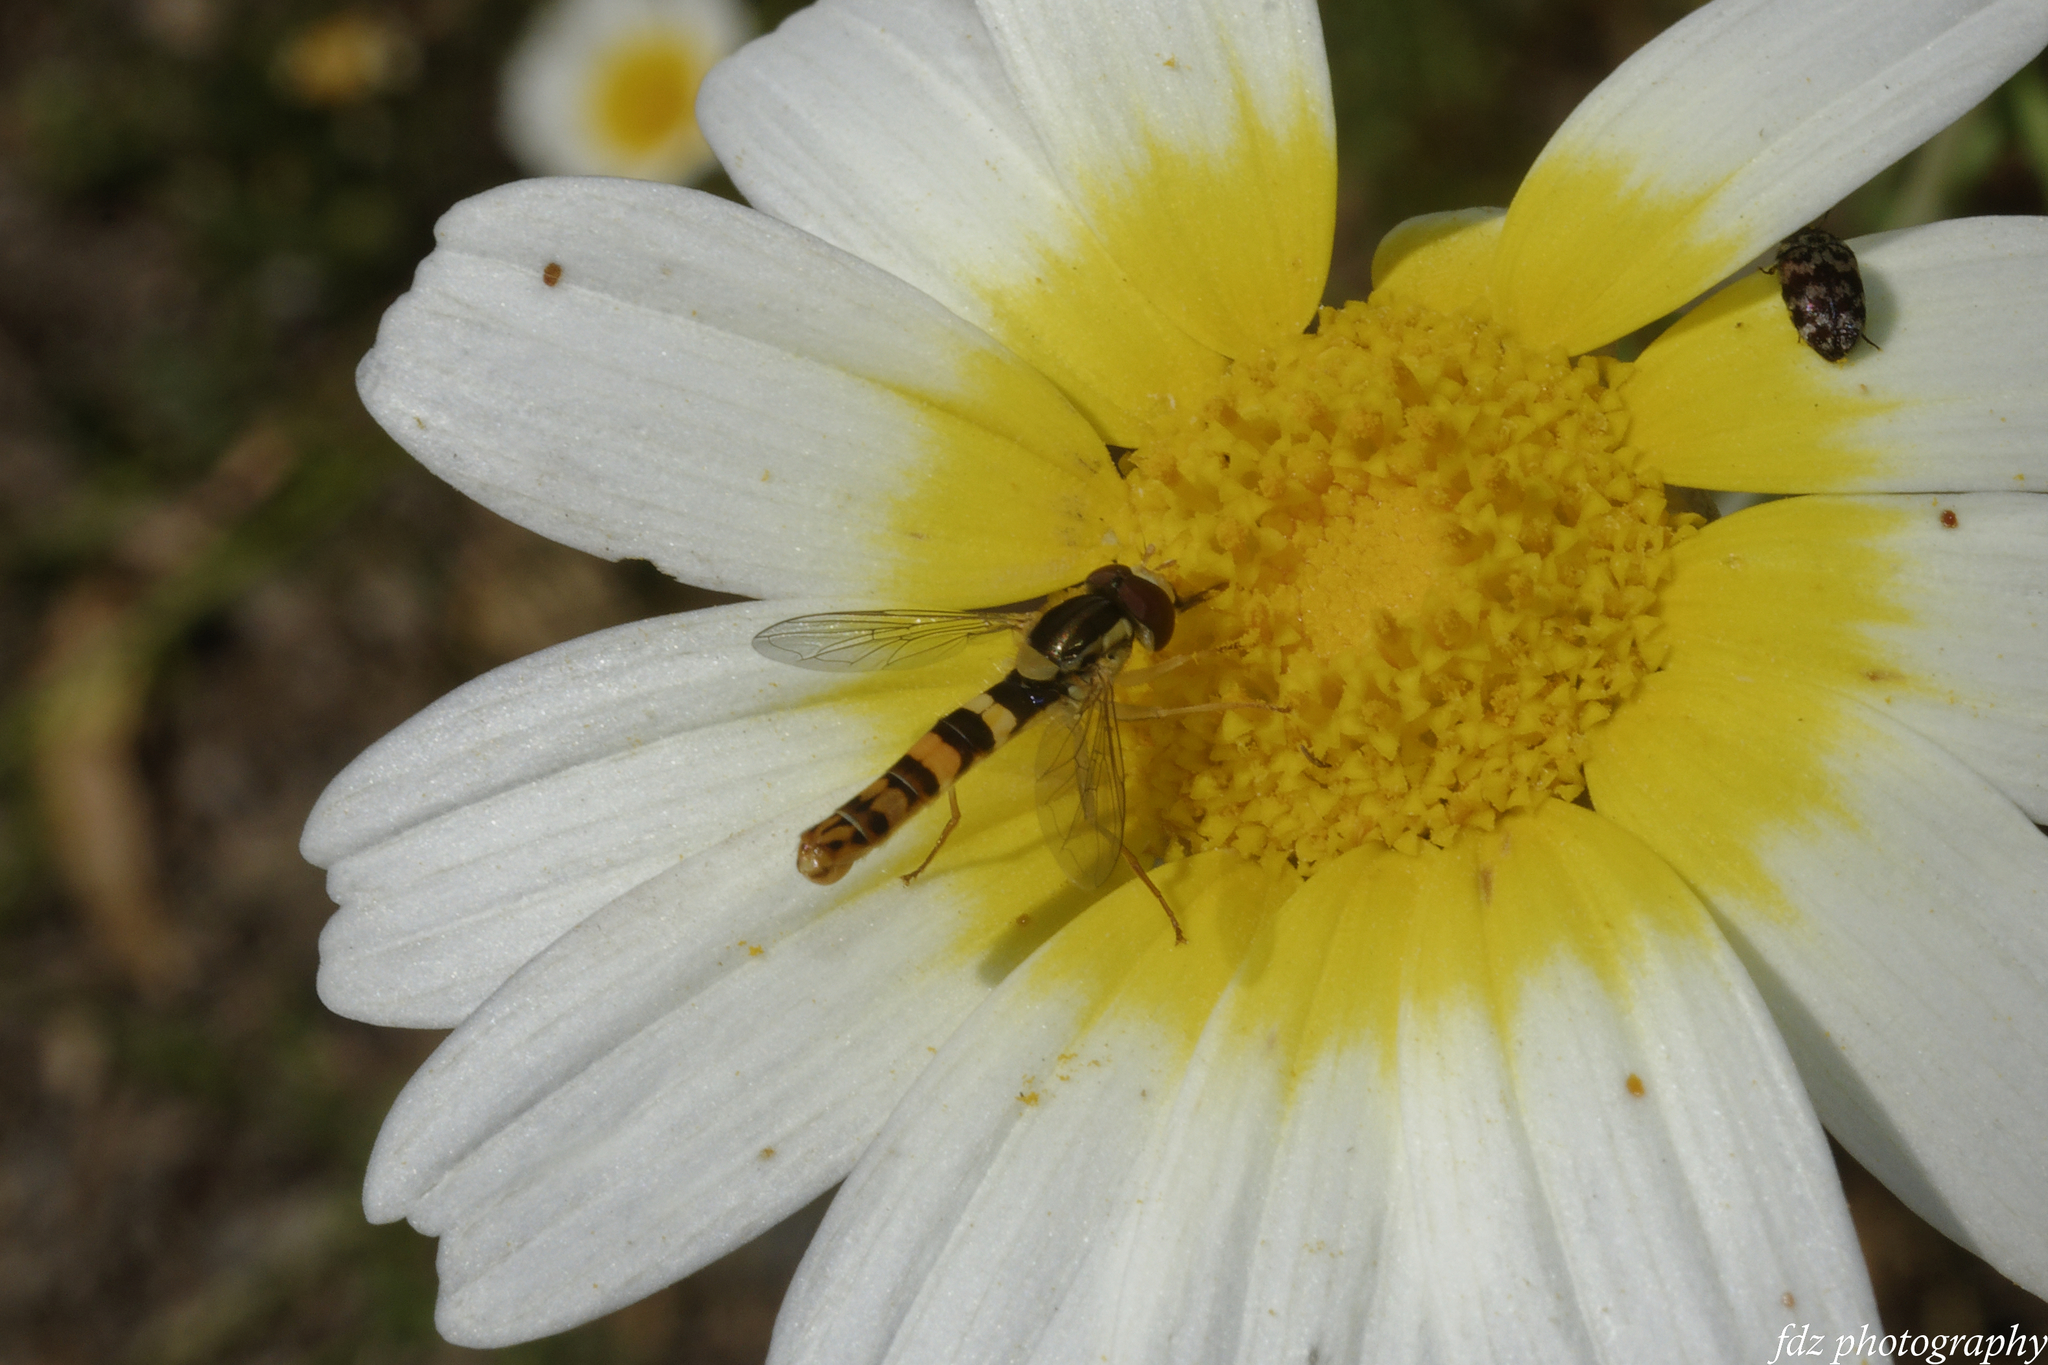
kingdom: Animalia
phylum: Arthropoda
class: Insecta
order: Diptera
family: Syrphidae
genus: Sphaerophoria
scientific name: Sphaerophoria scripta
